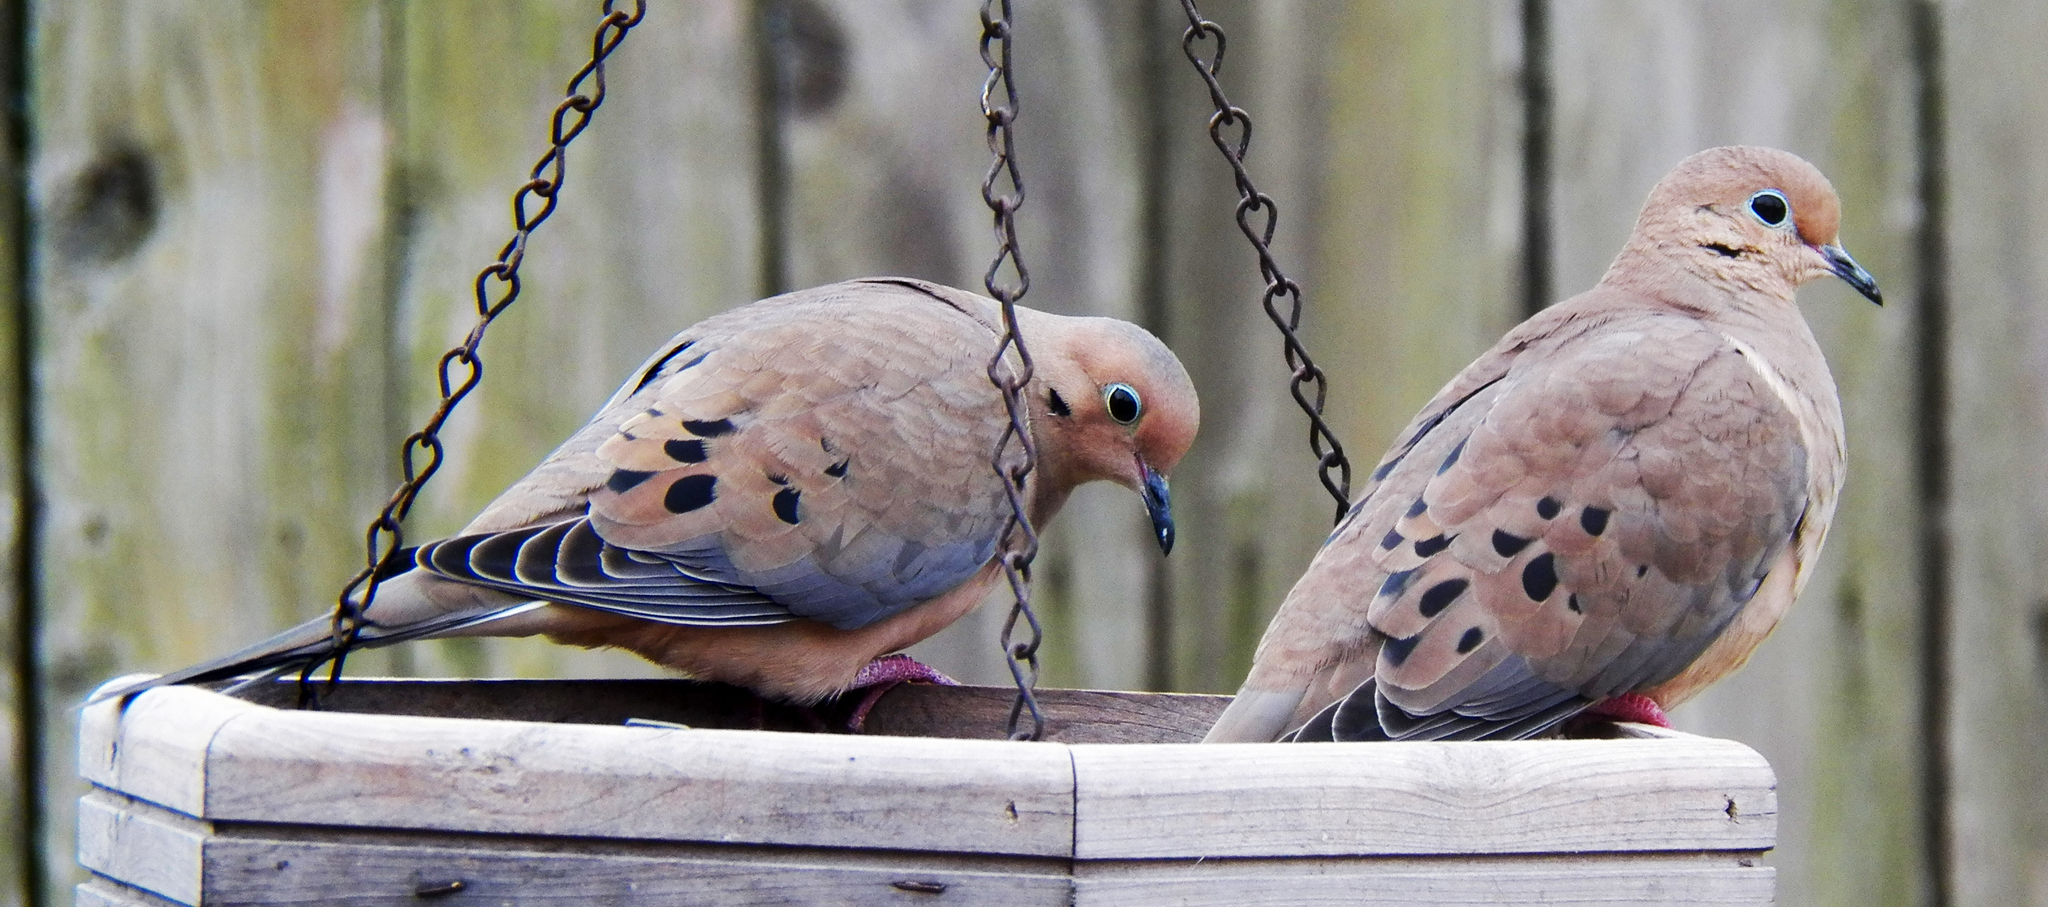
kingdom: Animalia
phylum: Chordata
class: Aves
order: Columbiformes
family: Columbidae
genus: Zenaida
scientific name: Zenaida macroura
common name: Mourning dove
